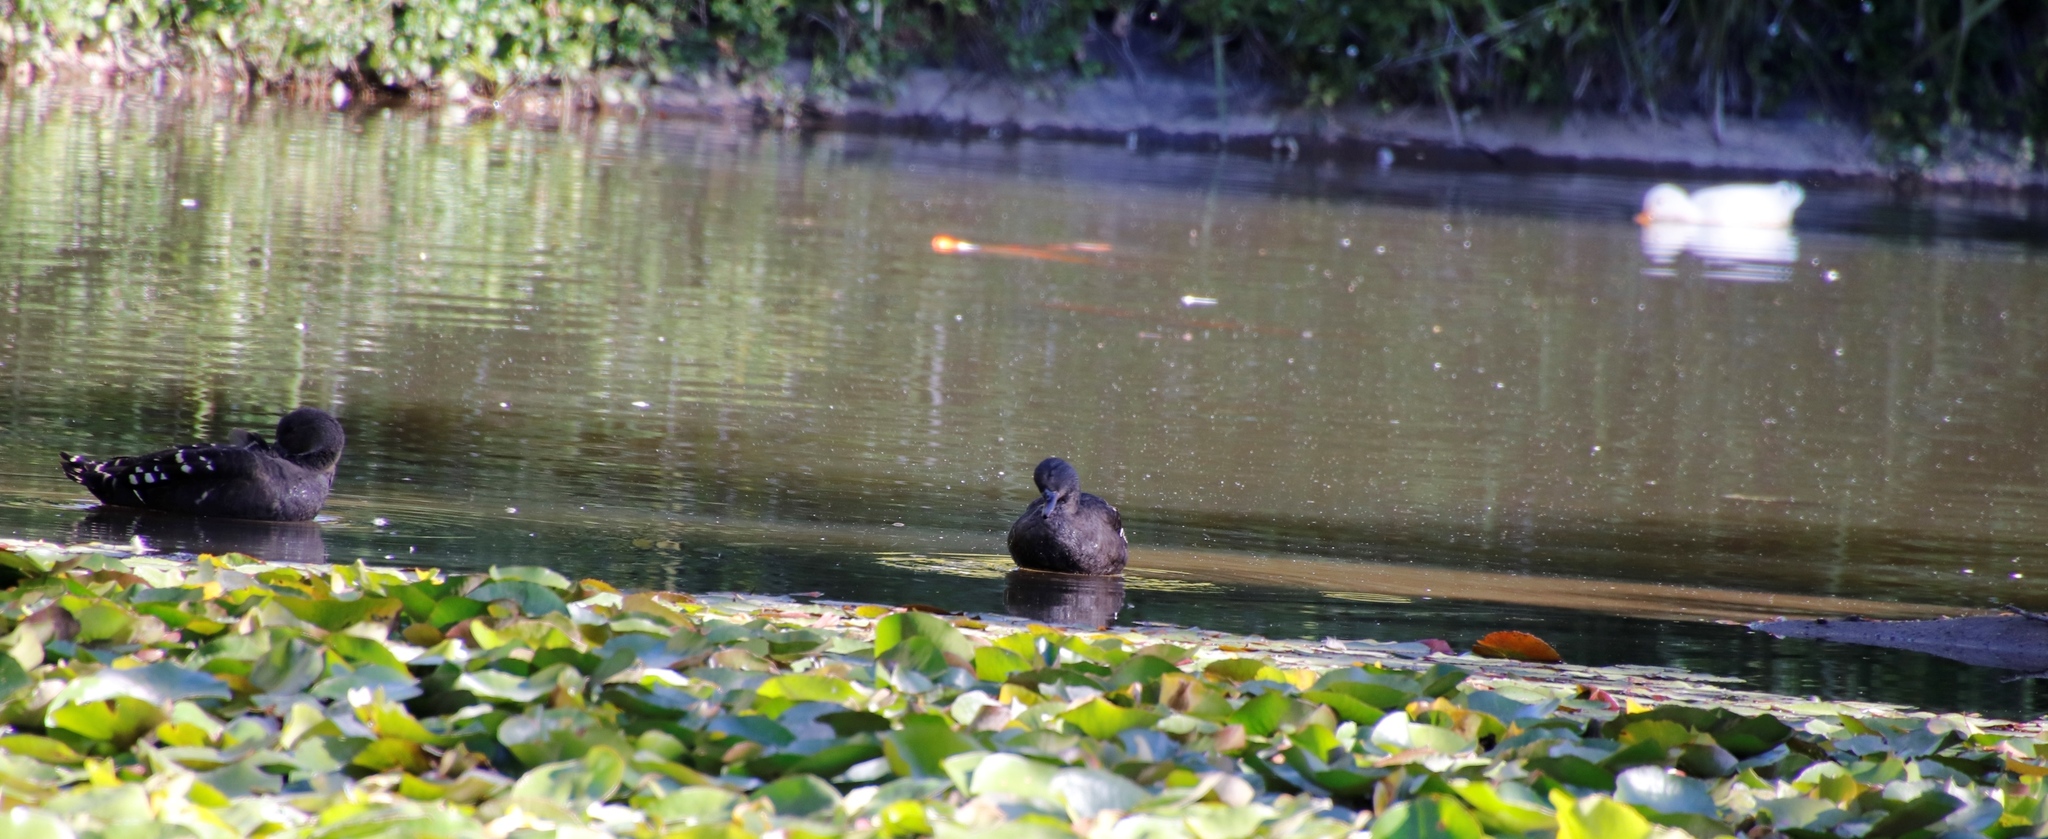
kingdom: Animalia
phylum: Chordata
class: Aves
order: Anseriformes
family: Anatidae
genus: Anas
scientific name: Anas sparsa
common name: African black duck
